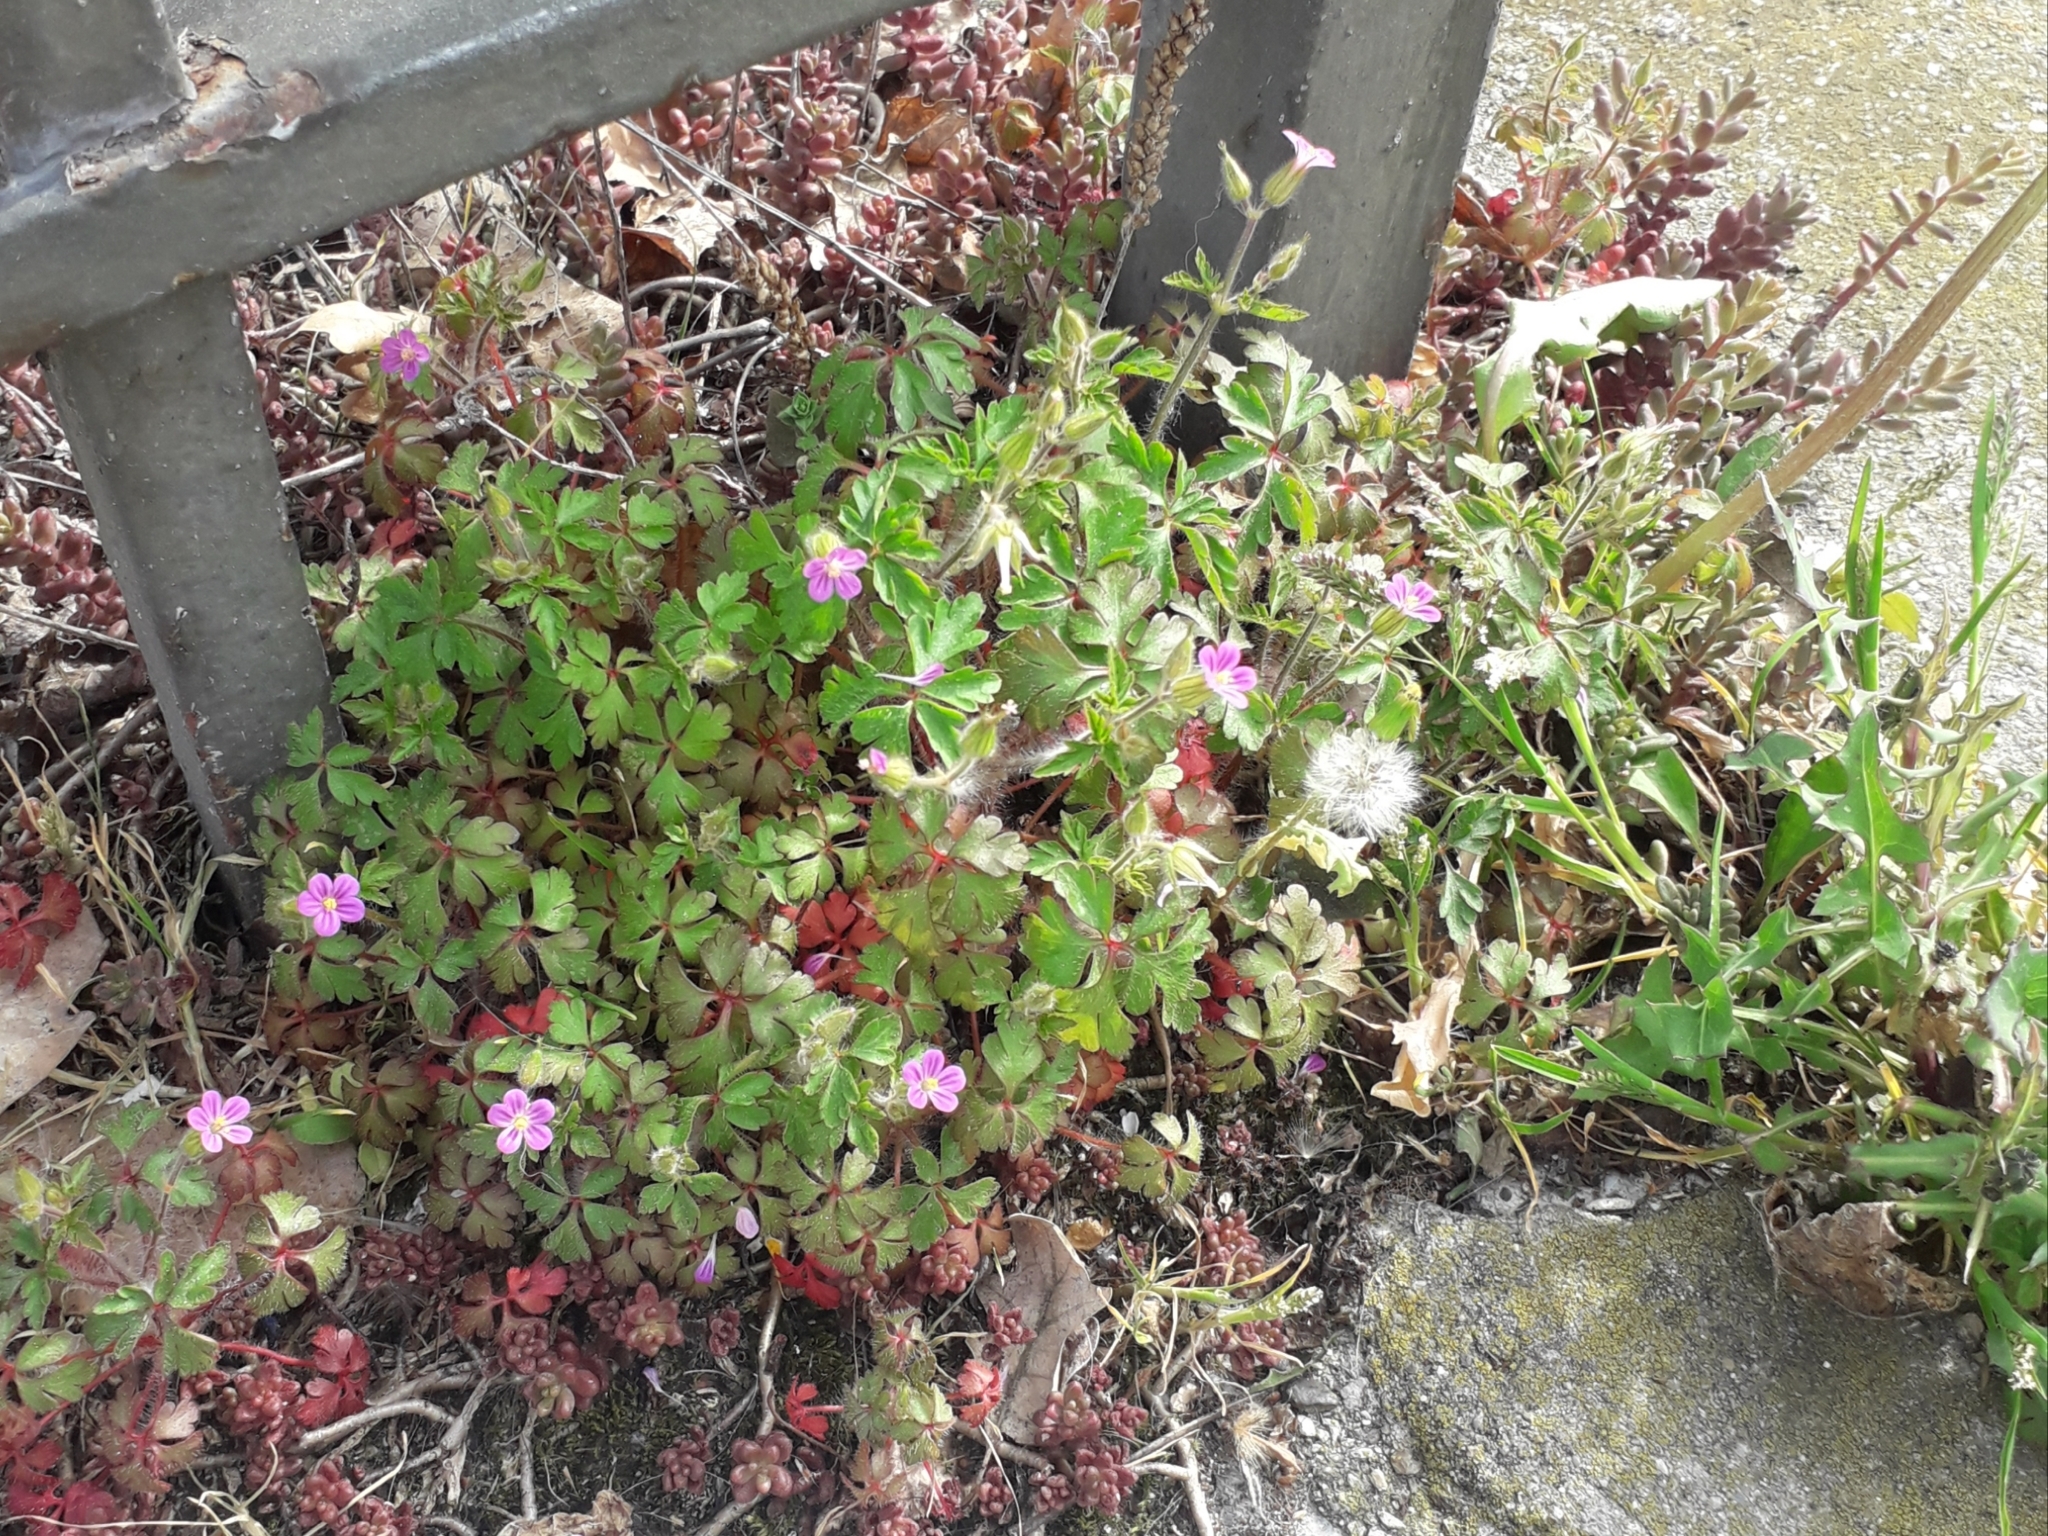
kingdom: Plantae
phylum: Tracheophyta
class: Magnoliopsida
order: Geraniales
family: Geraniaceae
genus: Geranium
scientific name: Geranium purpureum
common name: Little-robin
